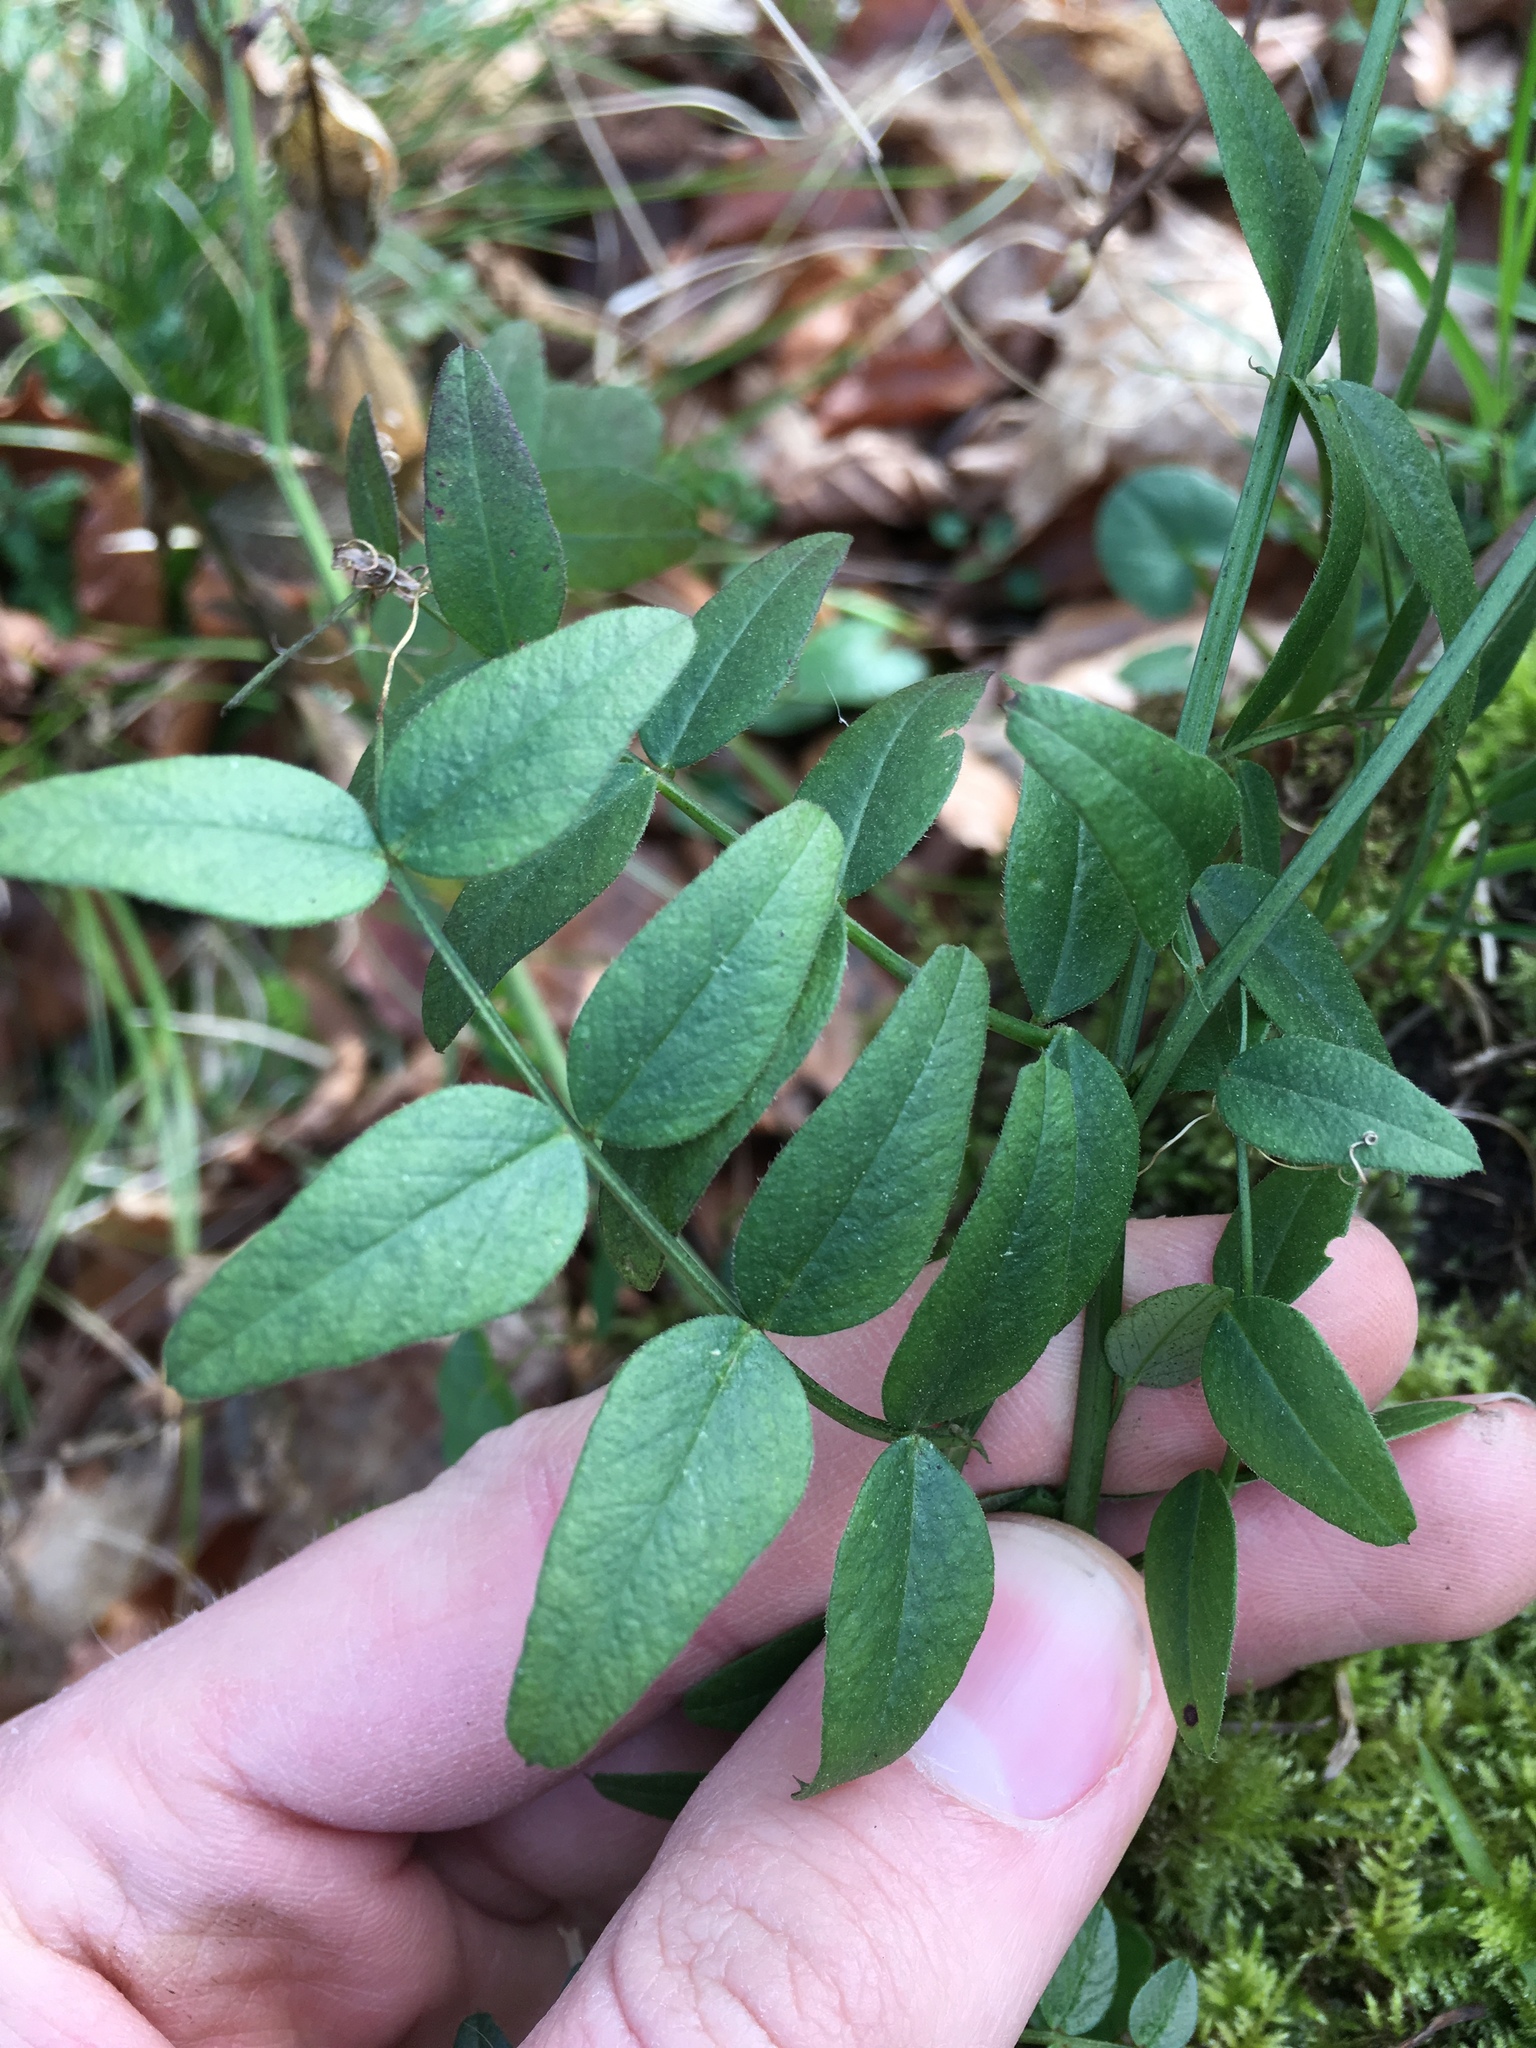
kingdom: Plantae
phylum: Tracheophyta
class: Magnoliopsida
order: Fabales
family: Fabaceae
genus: Vicia
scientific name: Vicia sepium
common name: Bush vetch
